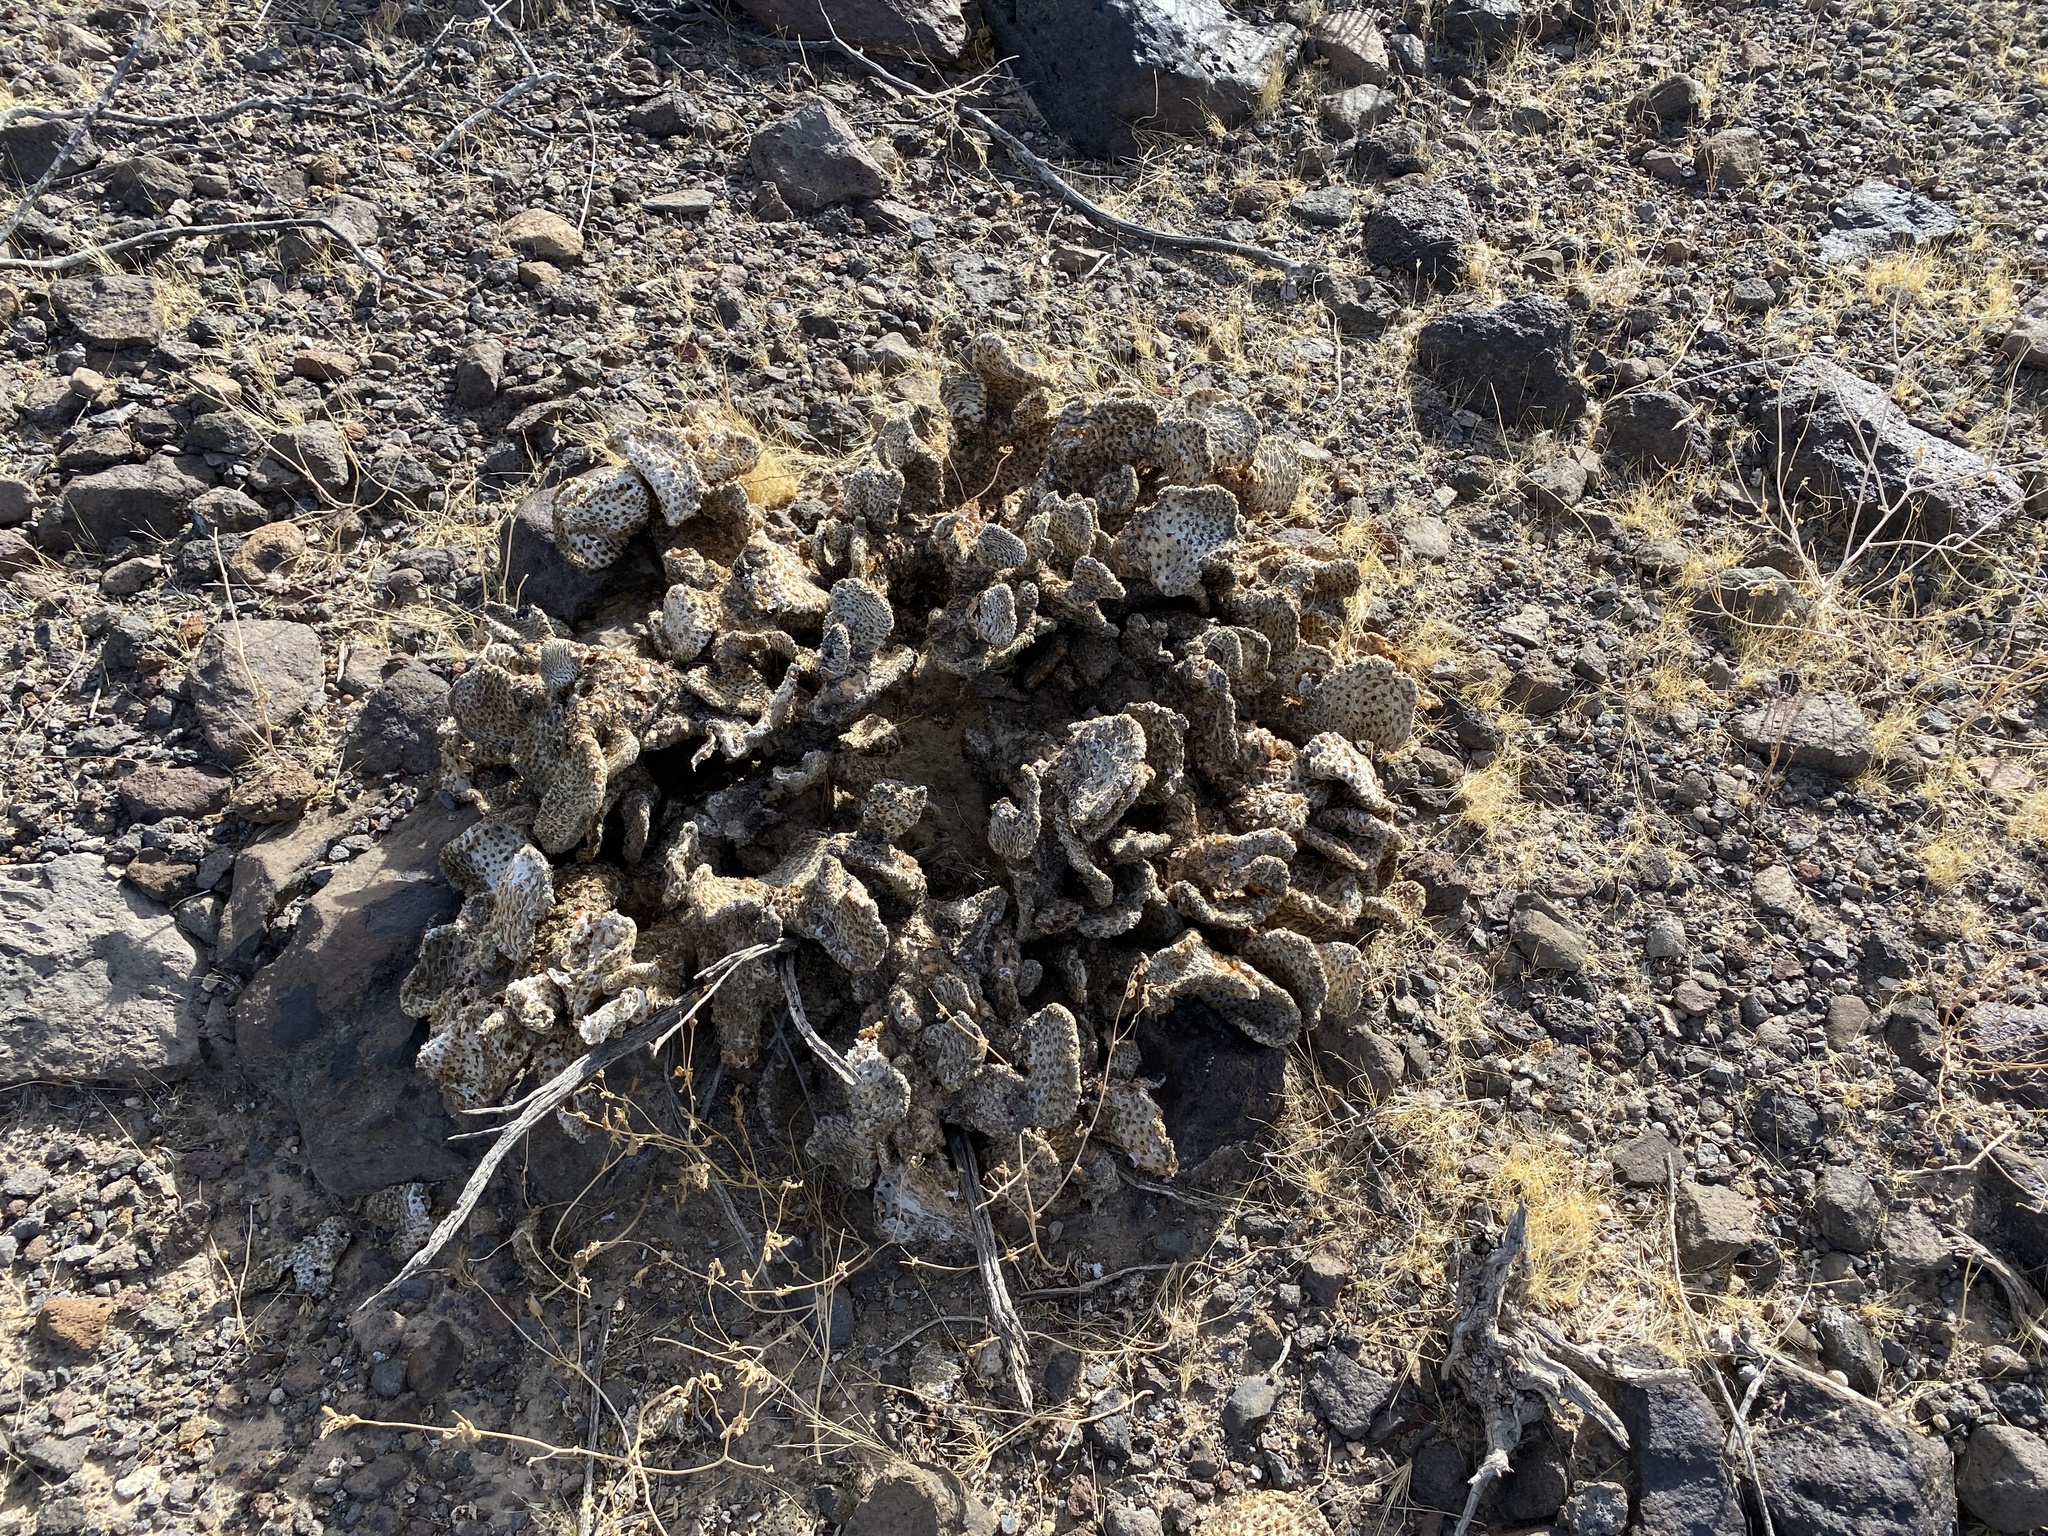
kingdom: Plantae
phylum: Tracheophyta
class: Magnoliopsida
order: Caryophyllales
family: Cactaceae
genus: Opuntia
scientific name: Opuntia basilaris
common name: Beavertail prickly-pear
